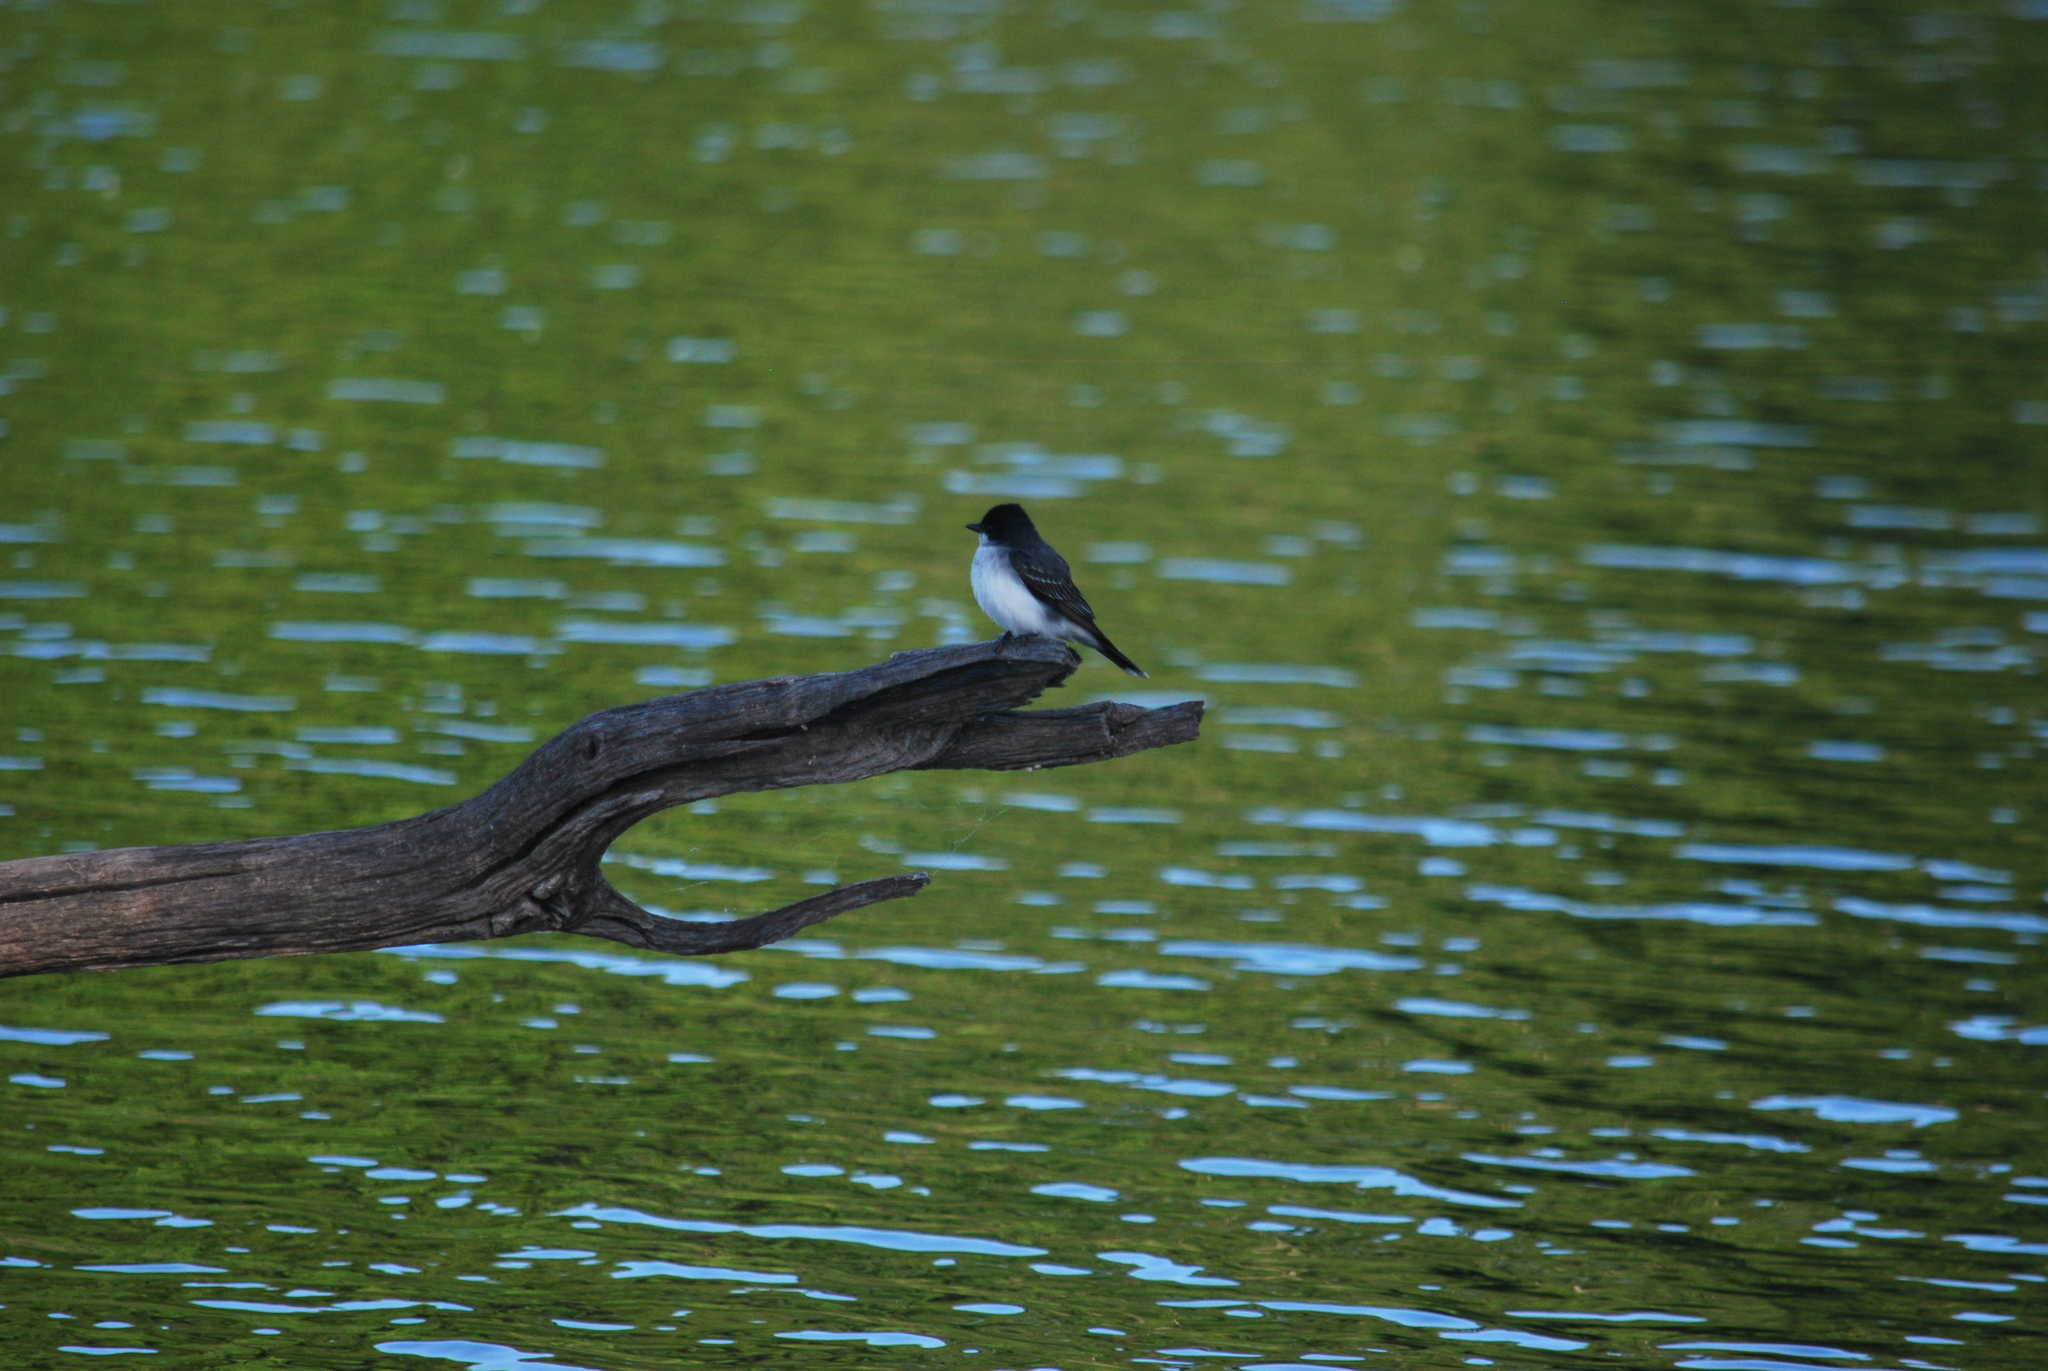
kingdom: Animalia
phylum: Chordata
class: Aves
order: Passeriformes
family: Tyrannidae
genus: Tyrannus
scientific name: Tyrannus tyrannus
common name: Eastern kingbird
